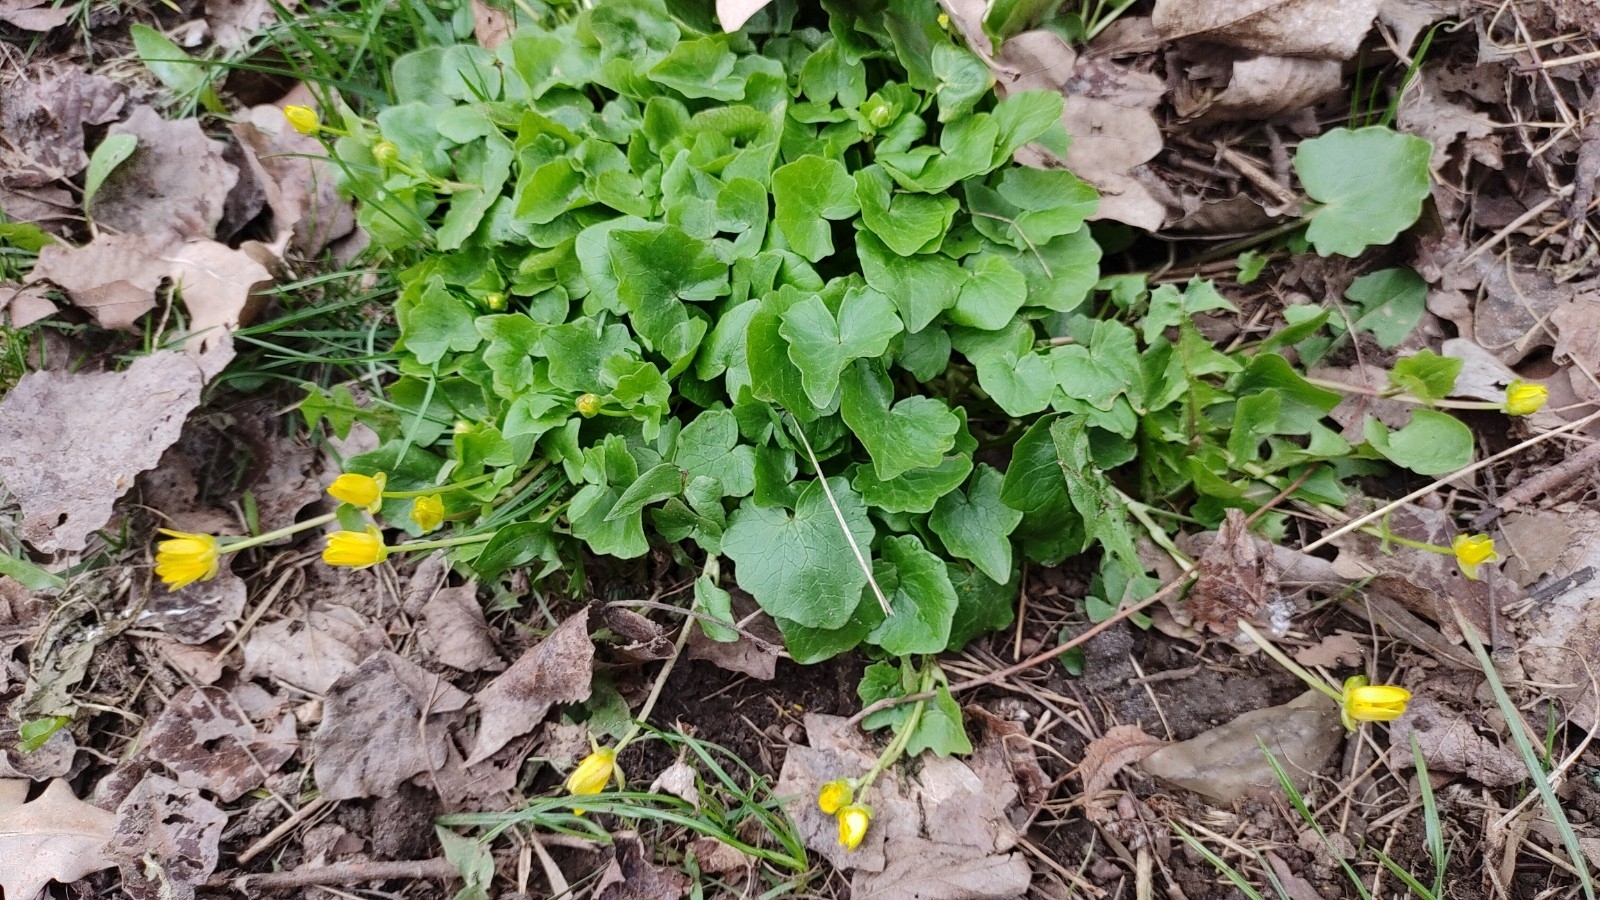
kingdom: Plantae
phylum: Tracheophyta
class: Magnoliopsida
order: Ranunculales
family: Ranunculaceae
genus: Ficaria
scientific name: Ficaria verna
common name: Lesser celandine
